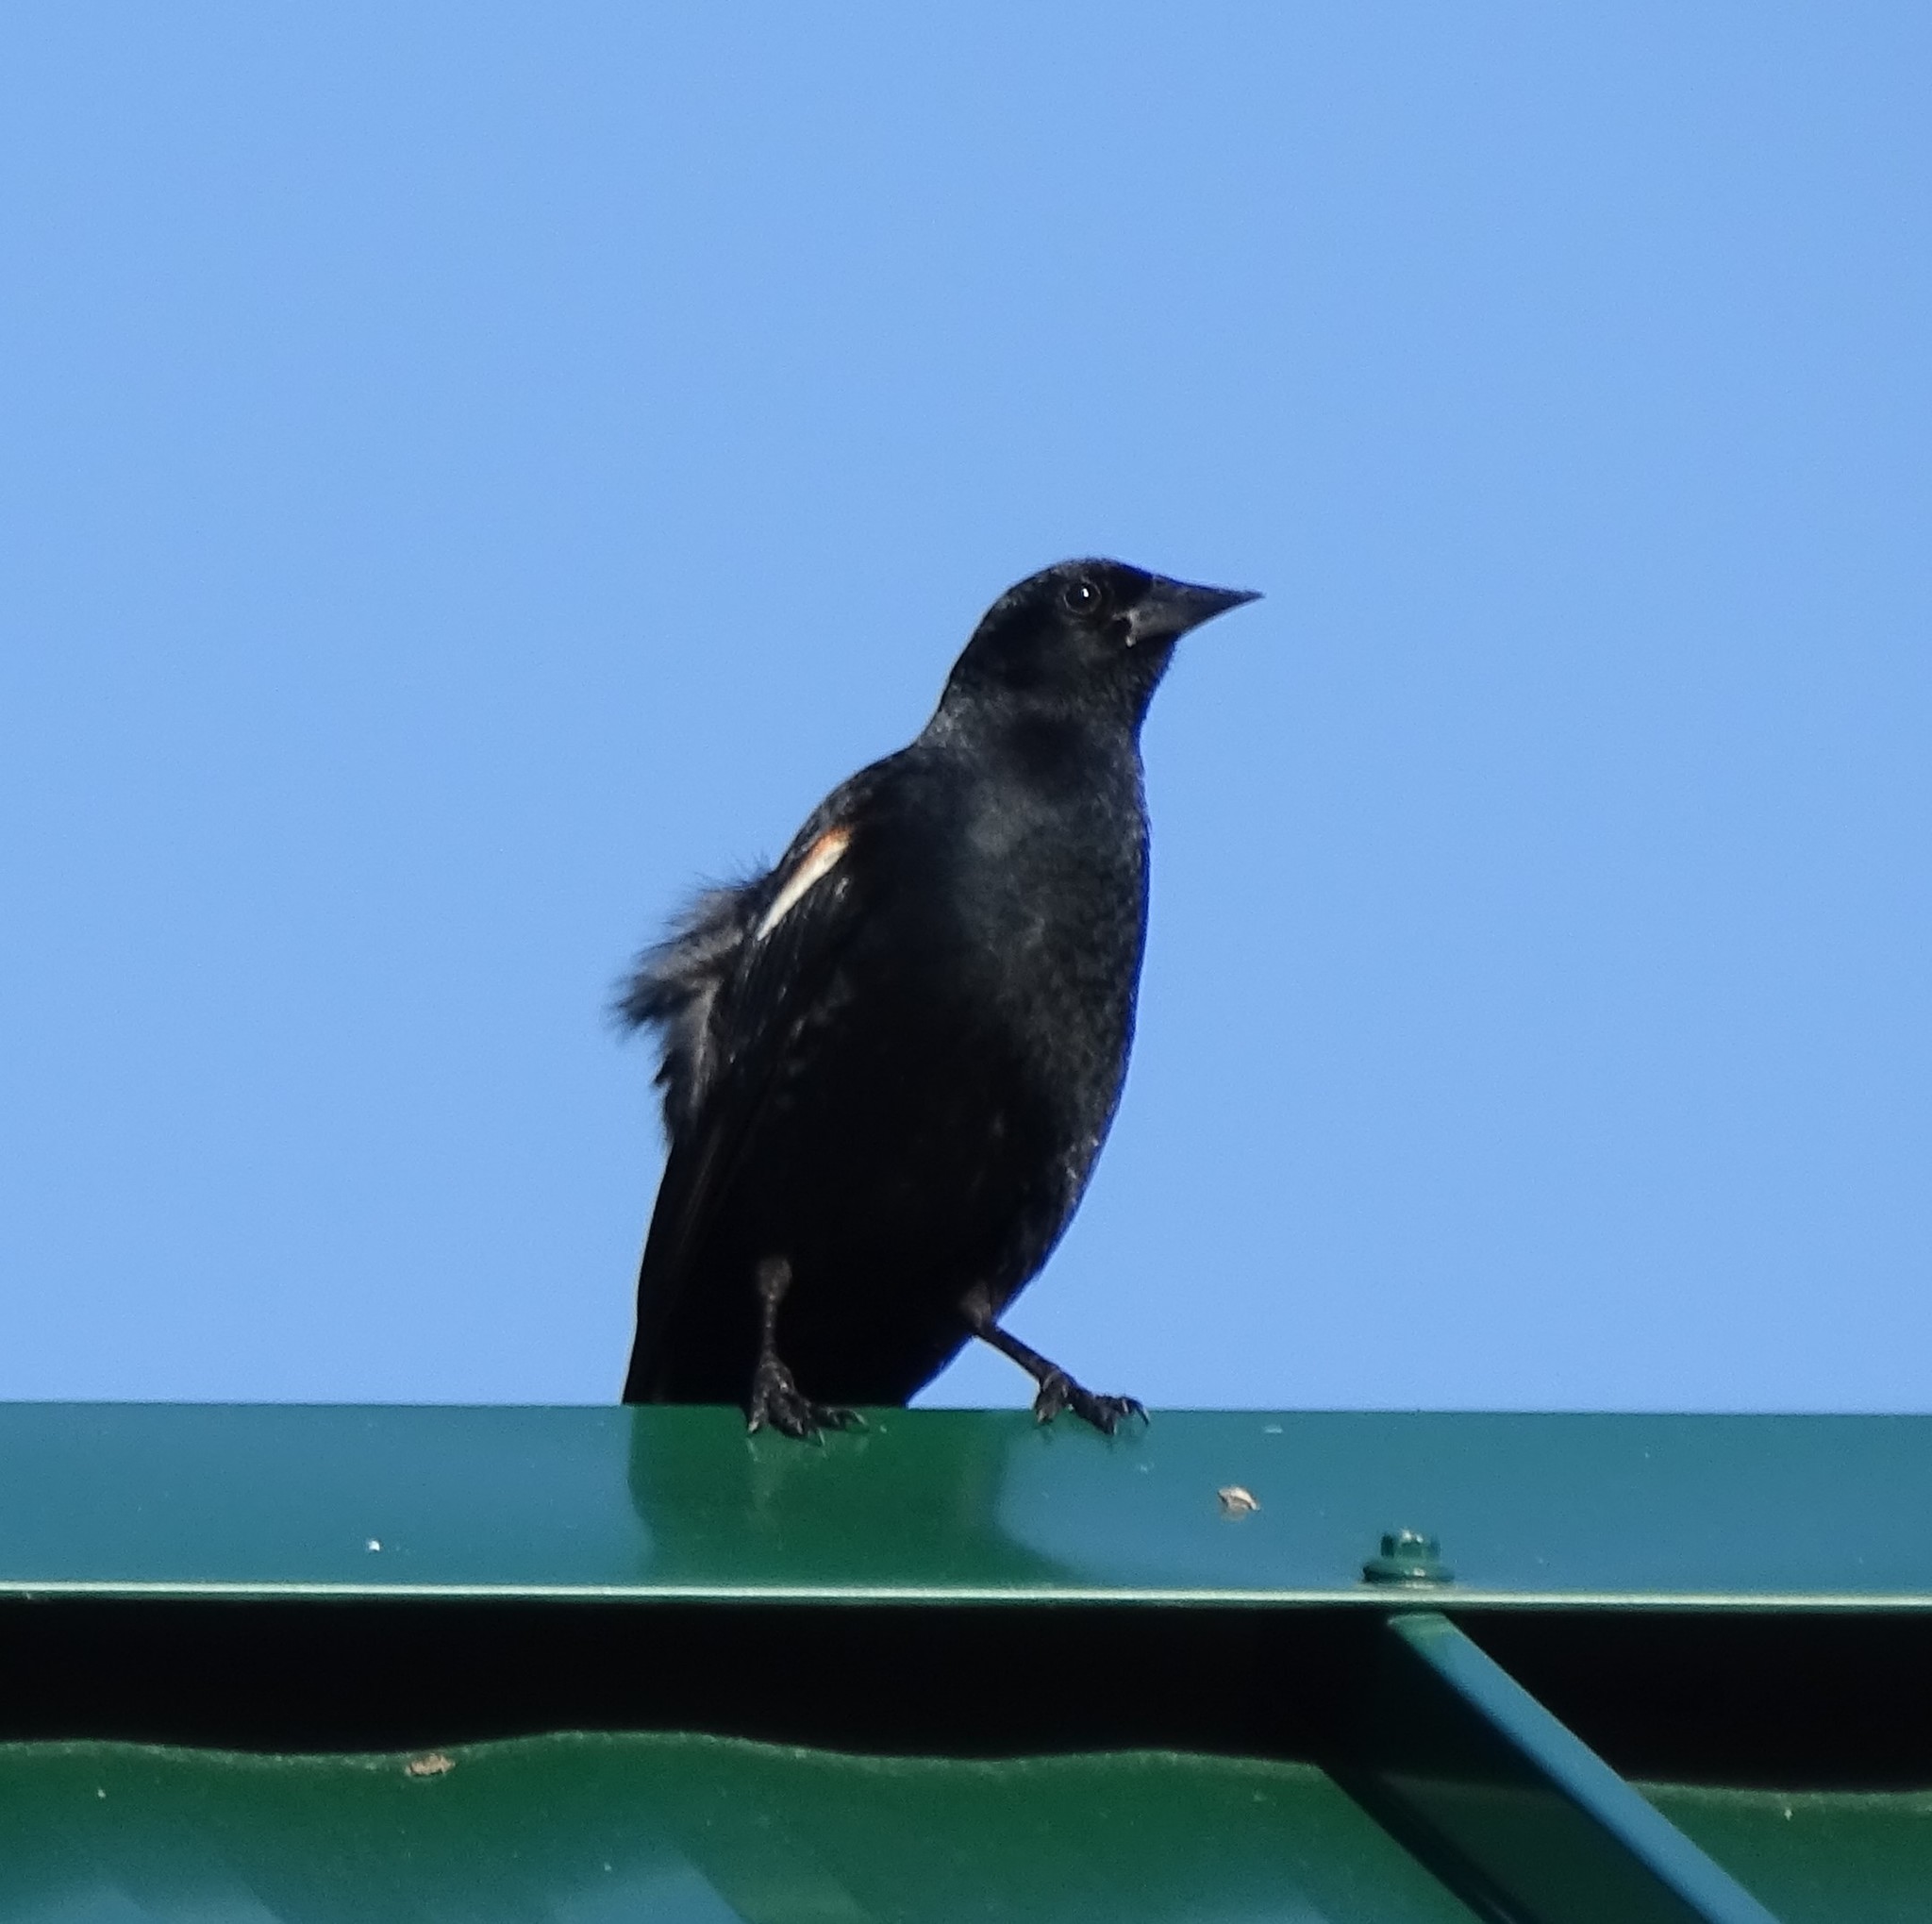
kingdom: Animalia
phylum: Chordata
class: Aves
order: Passeriformes
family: Icteridae
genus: Agelaius
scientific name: Agelaius phoeniceus
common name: Red-winged blackbird
